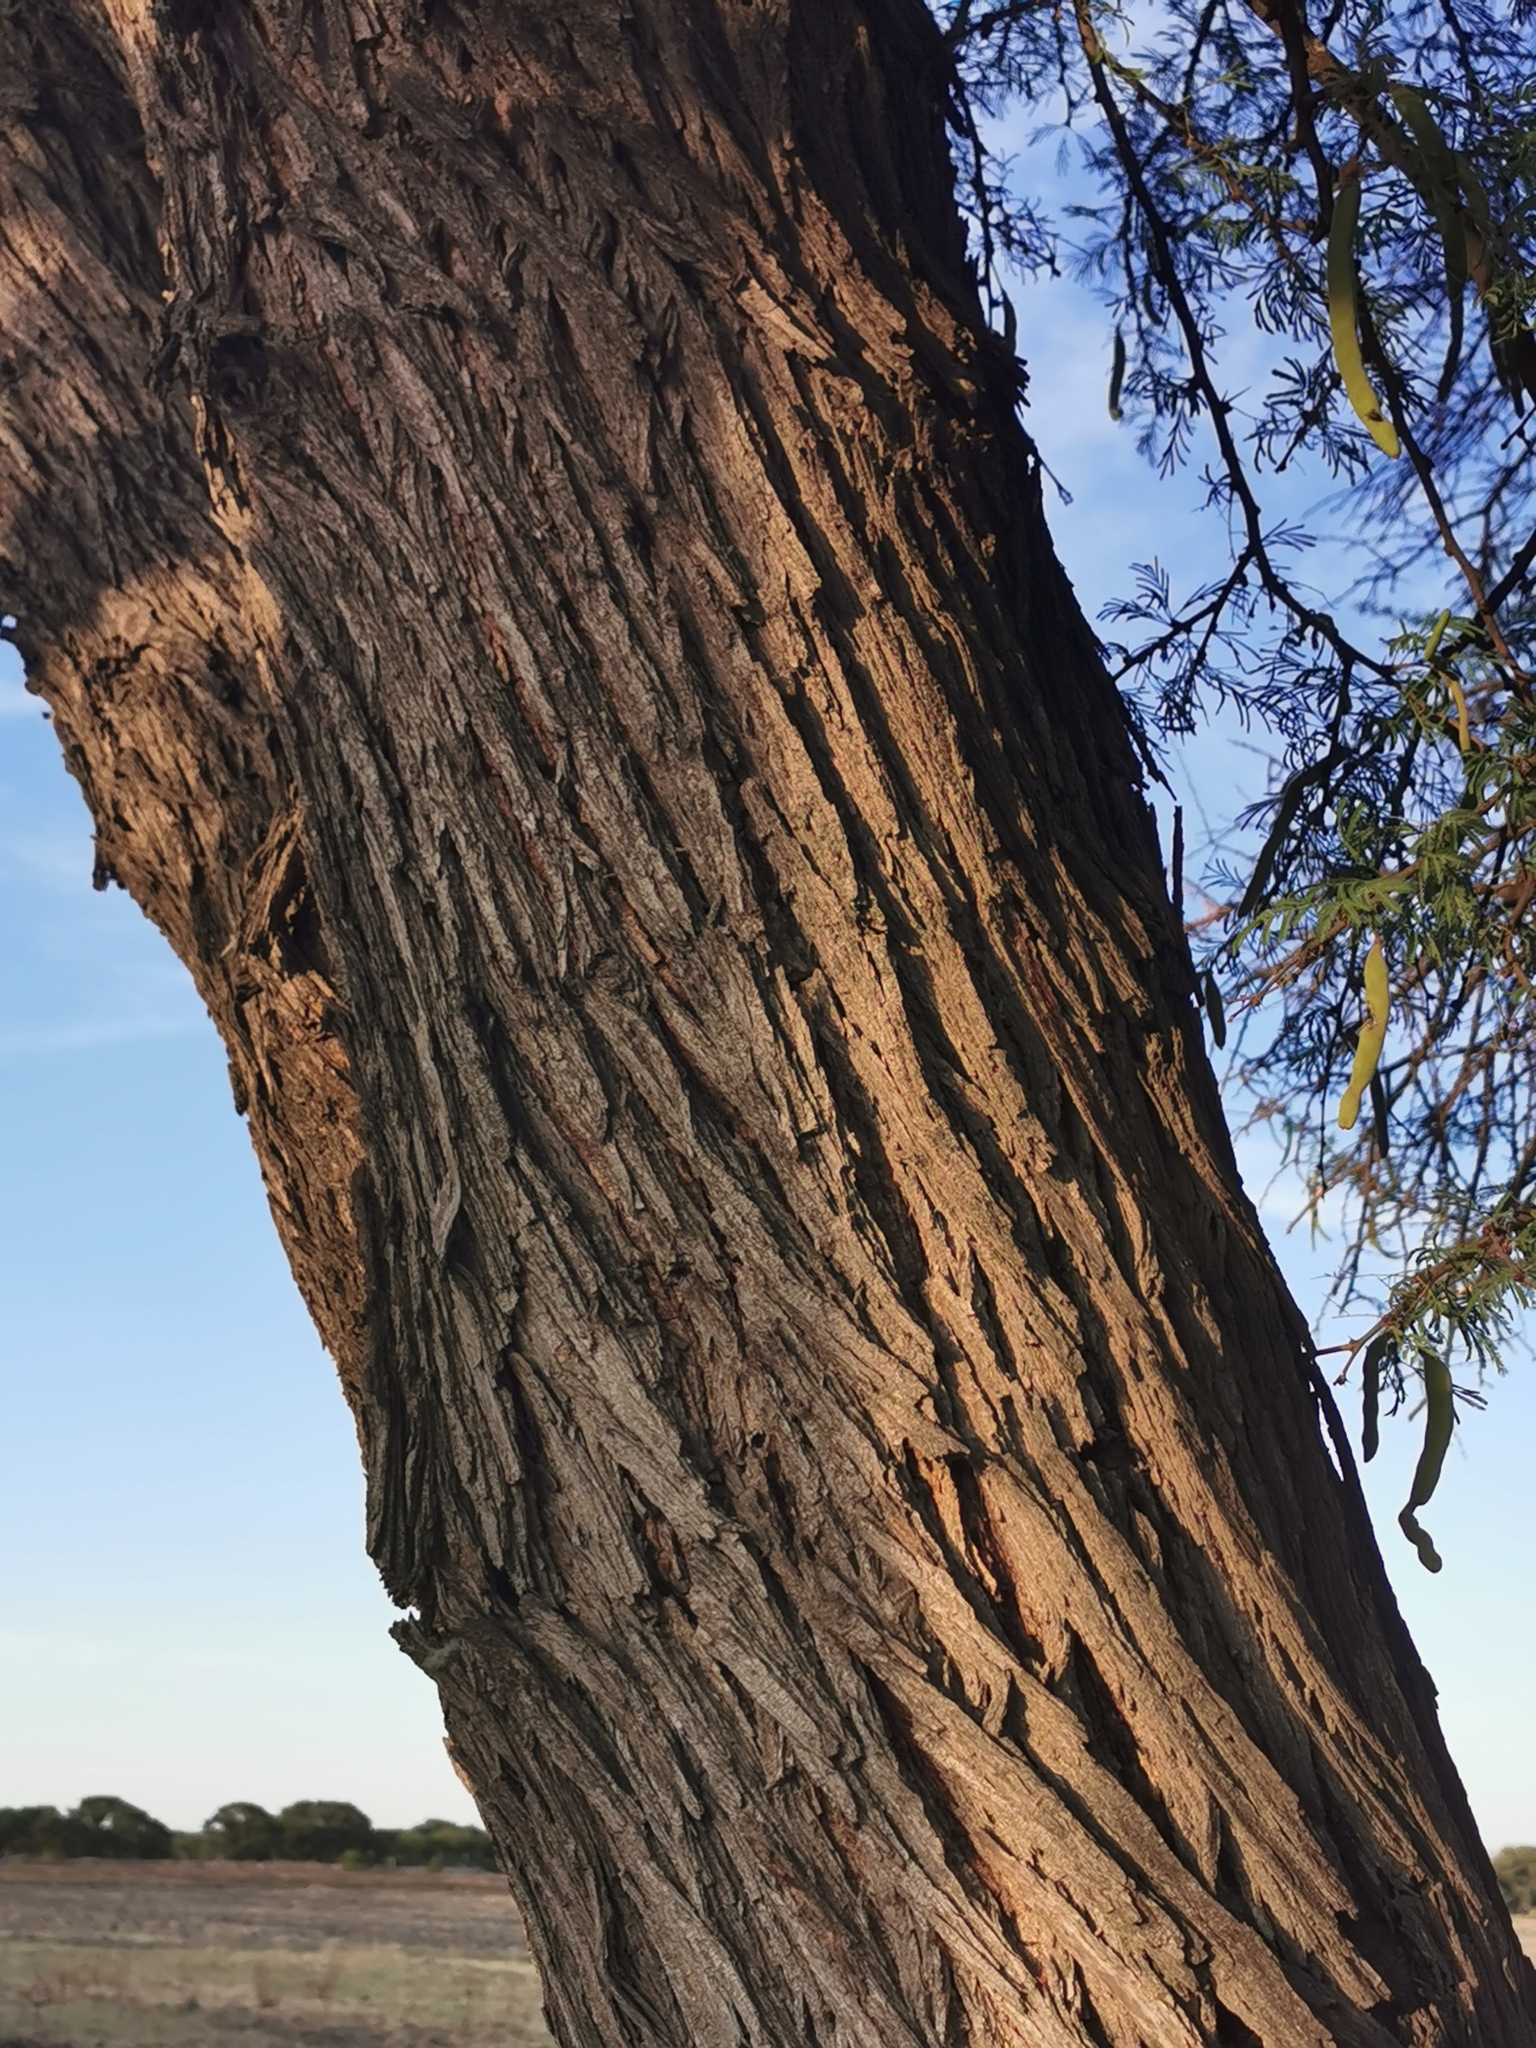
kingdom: Plantae
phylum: Tracheophyta
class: Magnoliopsida
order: Fabales
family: Fabaceae
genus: Vachellia
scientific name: Vachellia schaffneri
